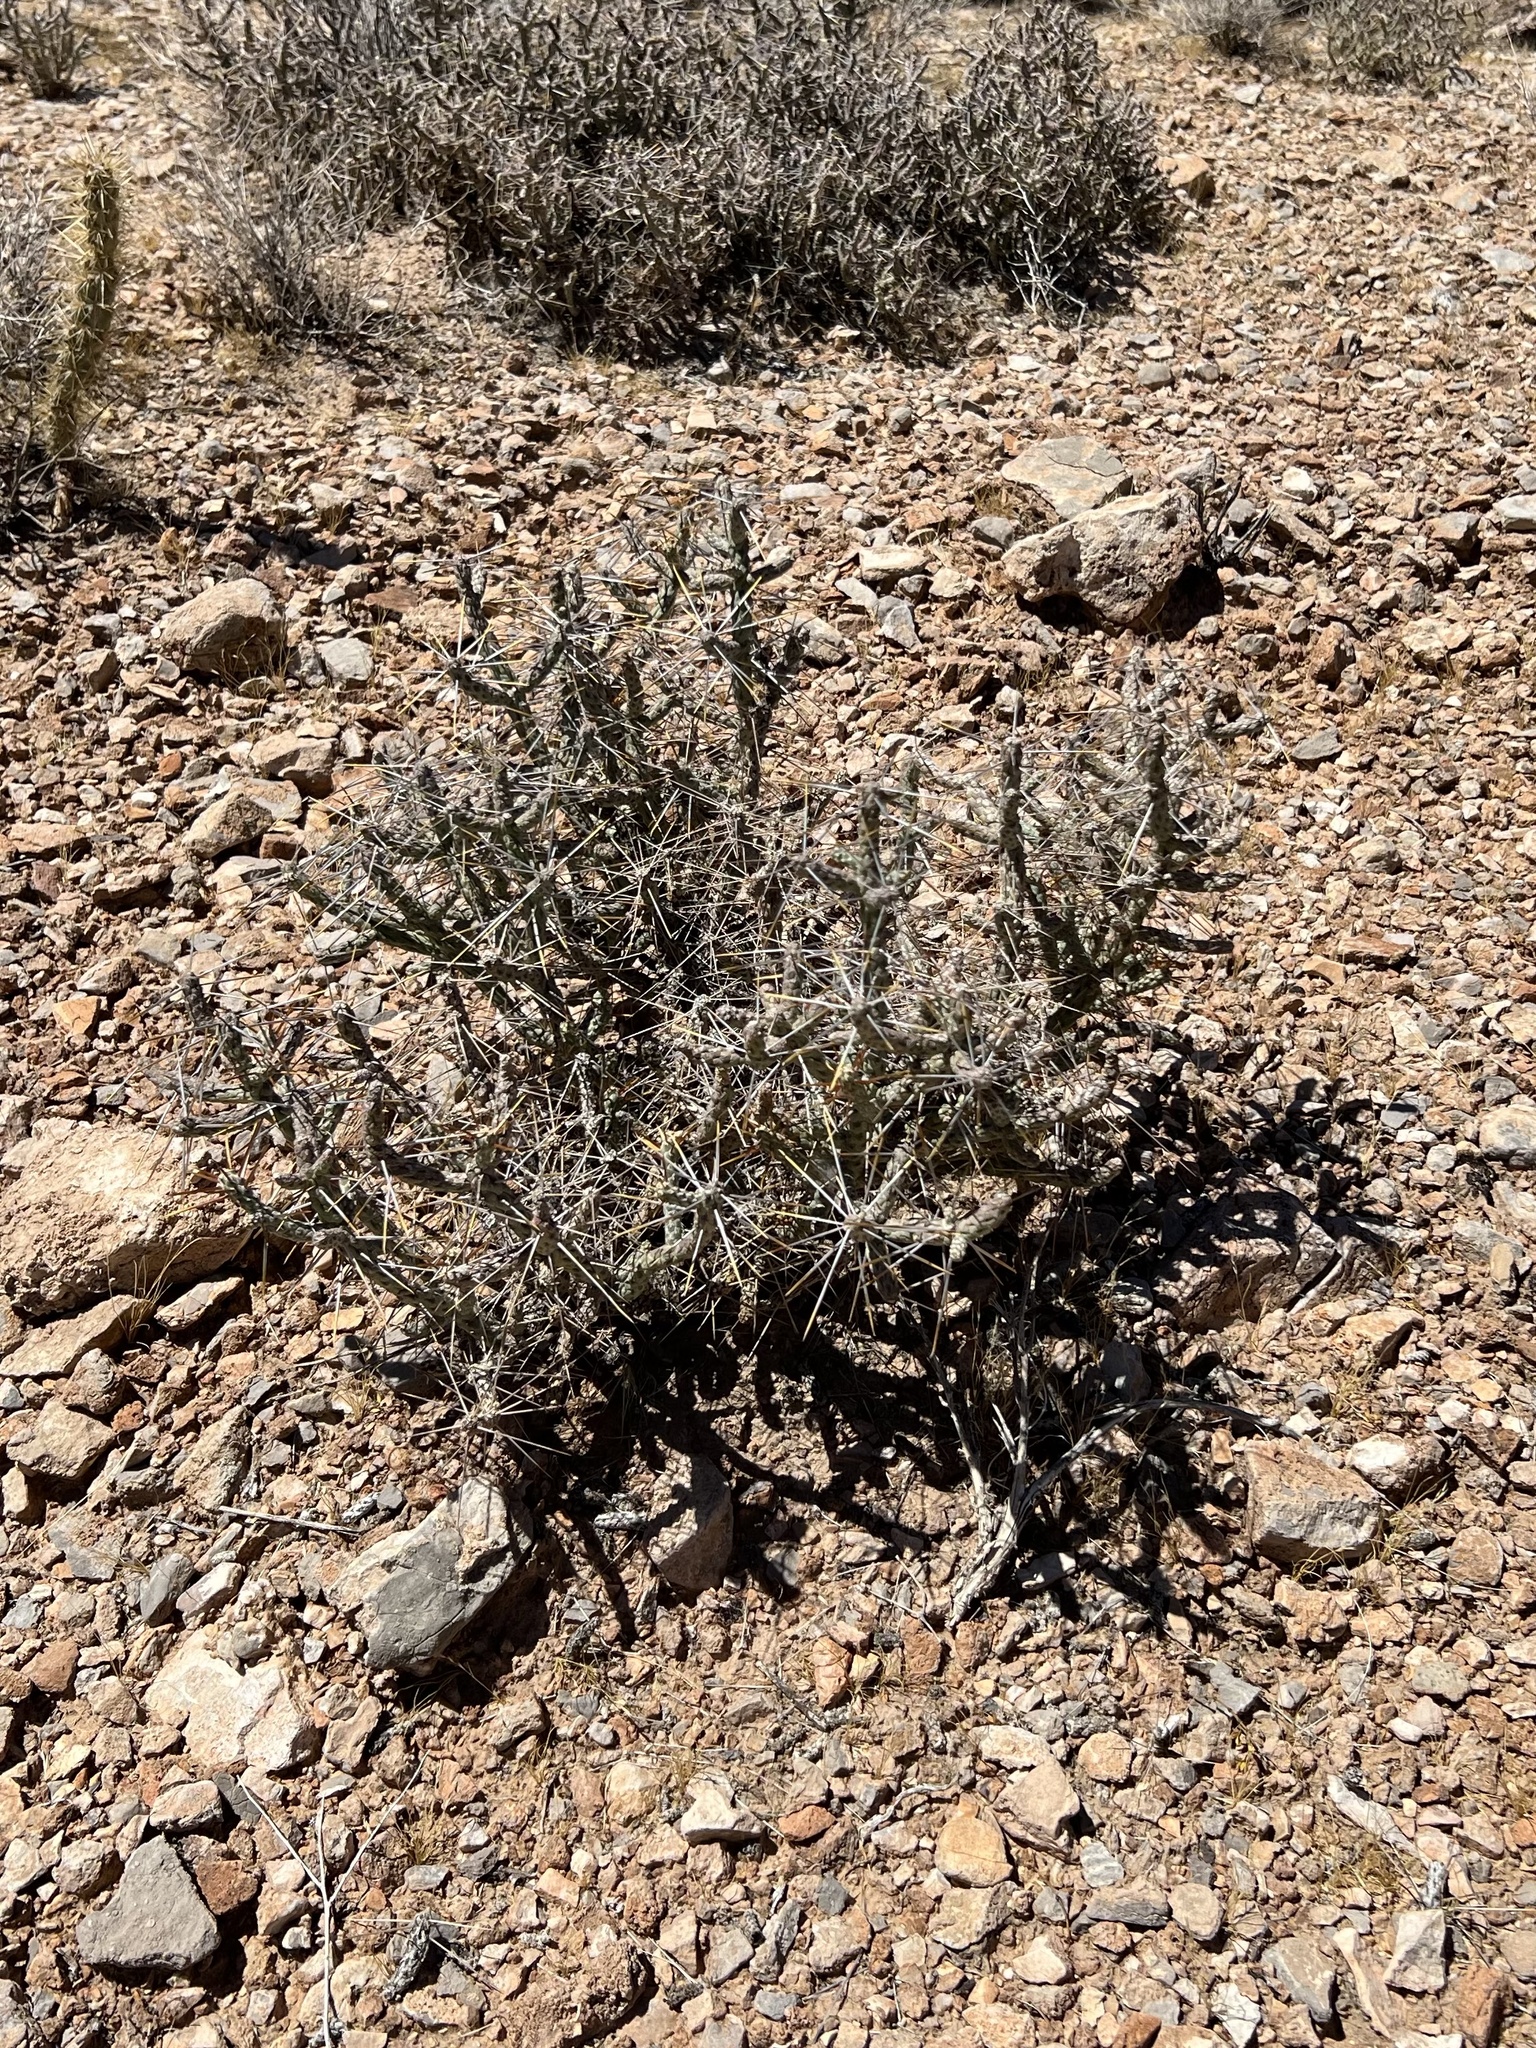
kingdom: Plantae
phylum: Tracheophyta
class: Magnoliopsida
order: Caryophyllales
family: Cactaceae
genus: Cylindropuntia
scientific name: Cylindropuntia ramosissima
